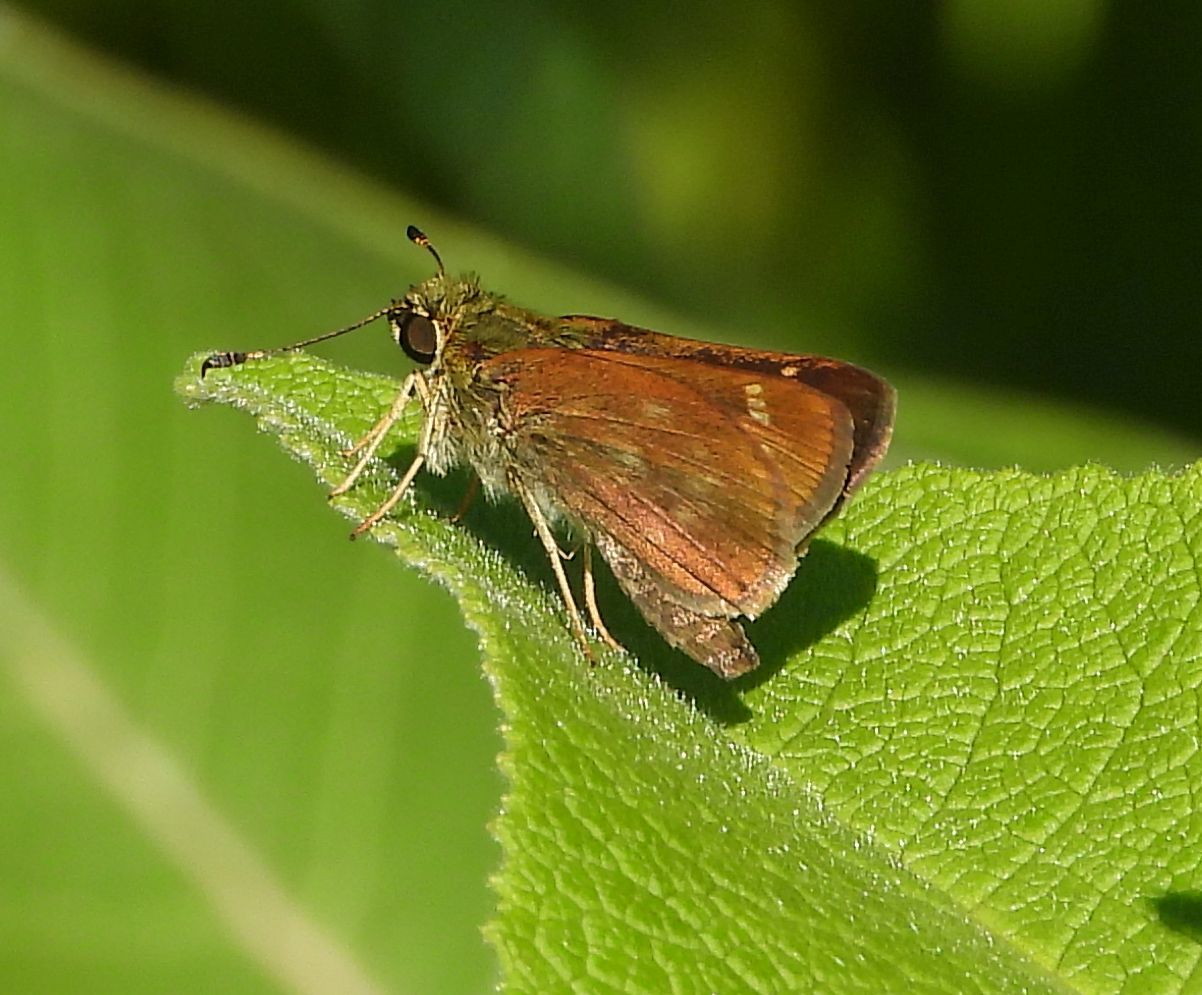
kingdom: Animalia
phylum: Arthropoda
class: Insecta
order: Lepidoptera
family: Hesperiidae
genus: Vernia
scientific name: Vernia verna
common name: Little glassywing
